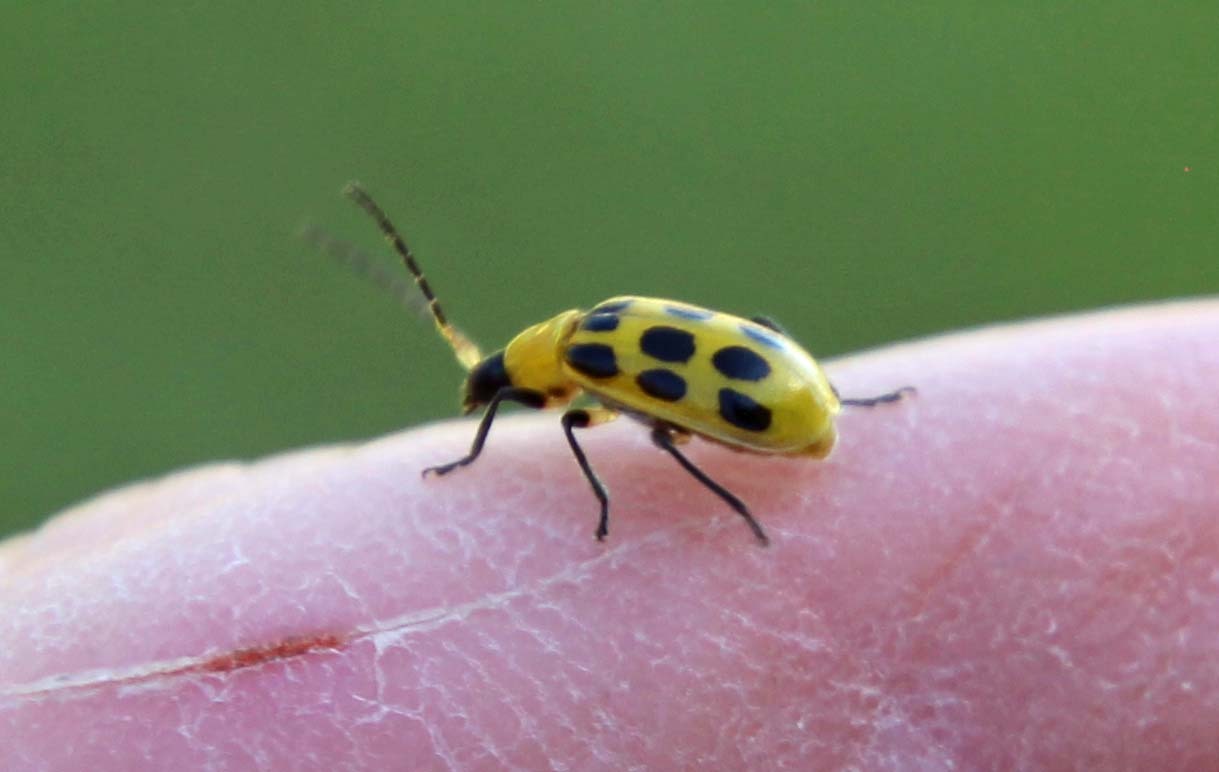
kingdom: Animalia
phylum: Arthropoda
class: Insecta
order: Coleoptera
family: Chrysomelidae
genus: Diabrotica
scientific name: Diabrotica undecimpunctata
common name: Spotted cucumber beetle
